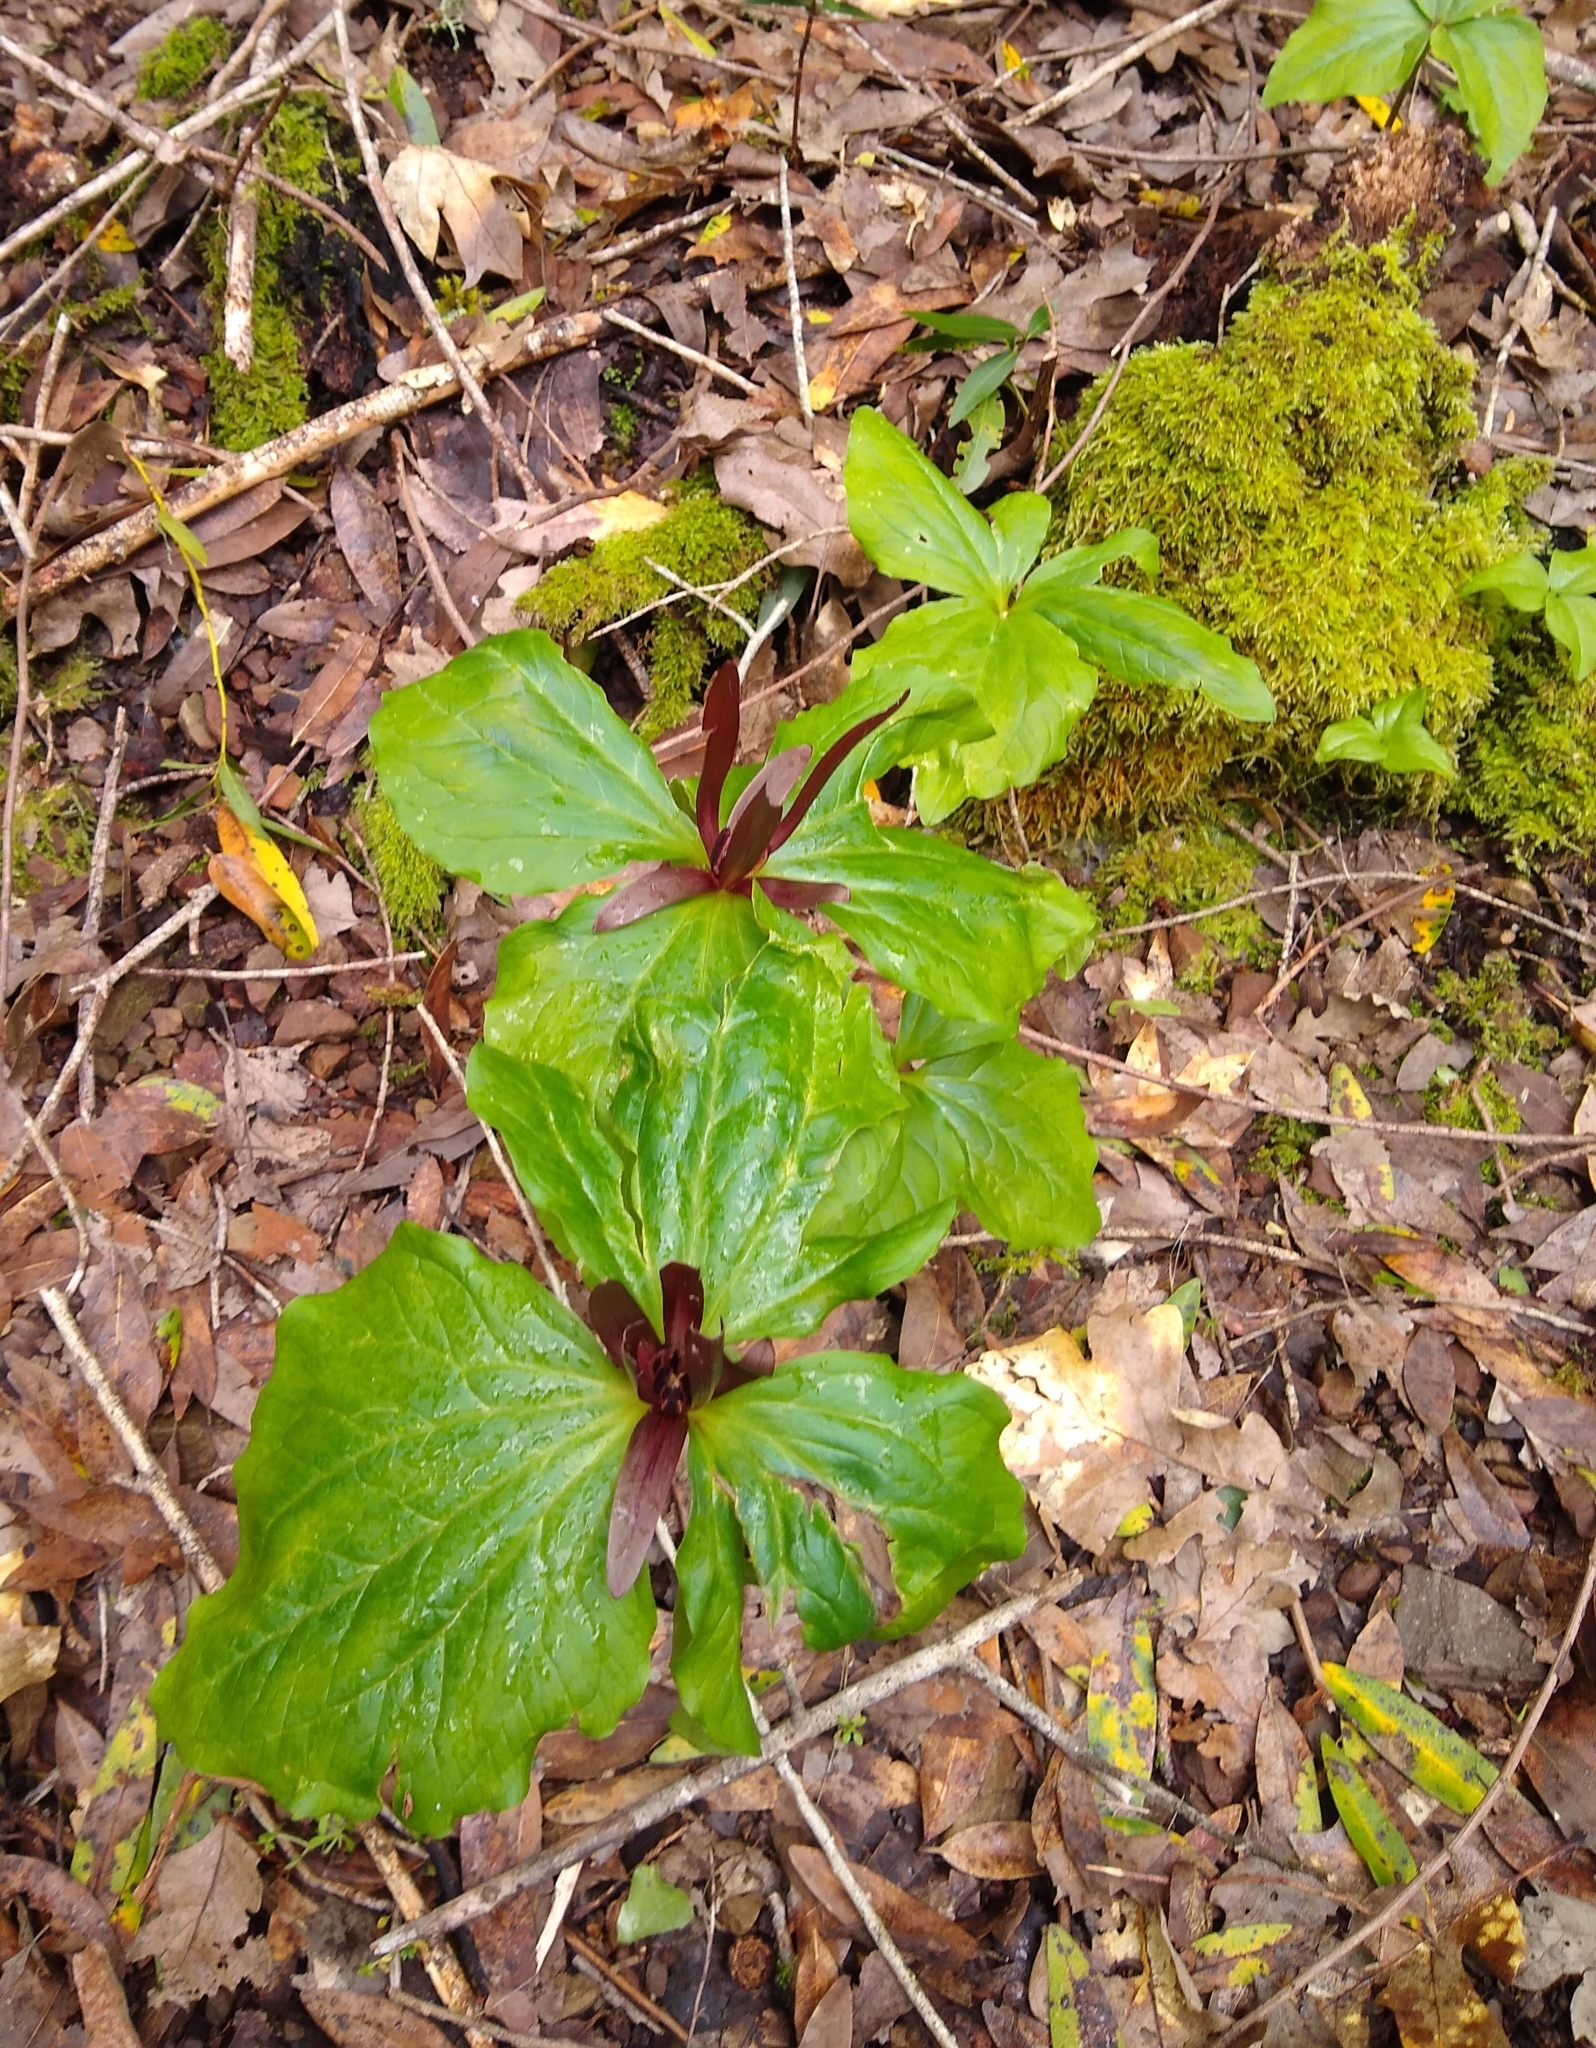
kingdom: Plantae
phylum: Tracheophyta
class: Liliopsida
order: Liliales
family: Melanthiaceae
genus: Trillium
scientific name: Trillium chloropetalum
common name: Giant trillium
